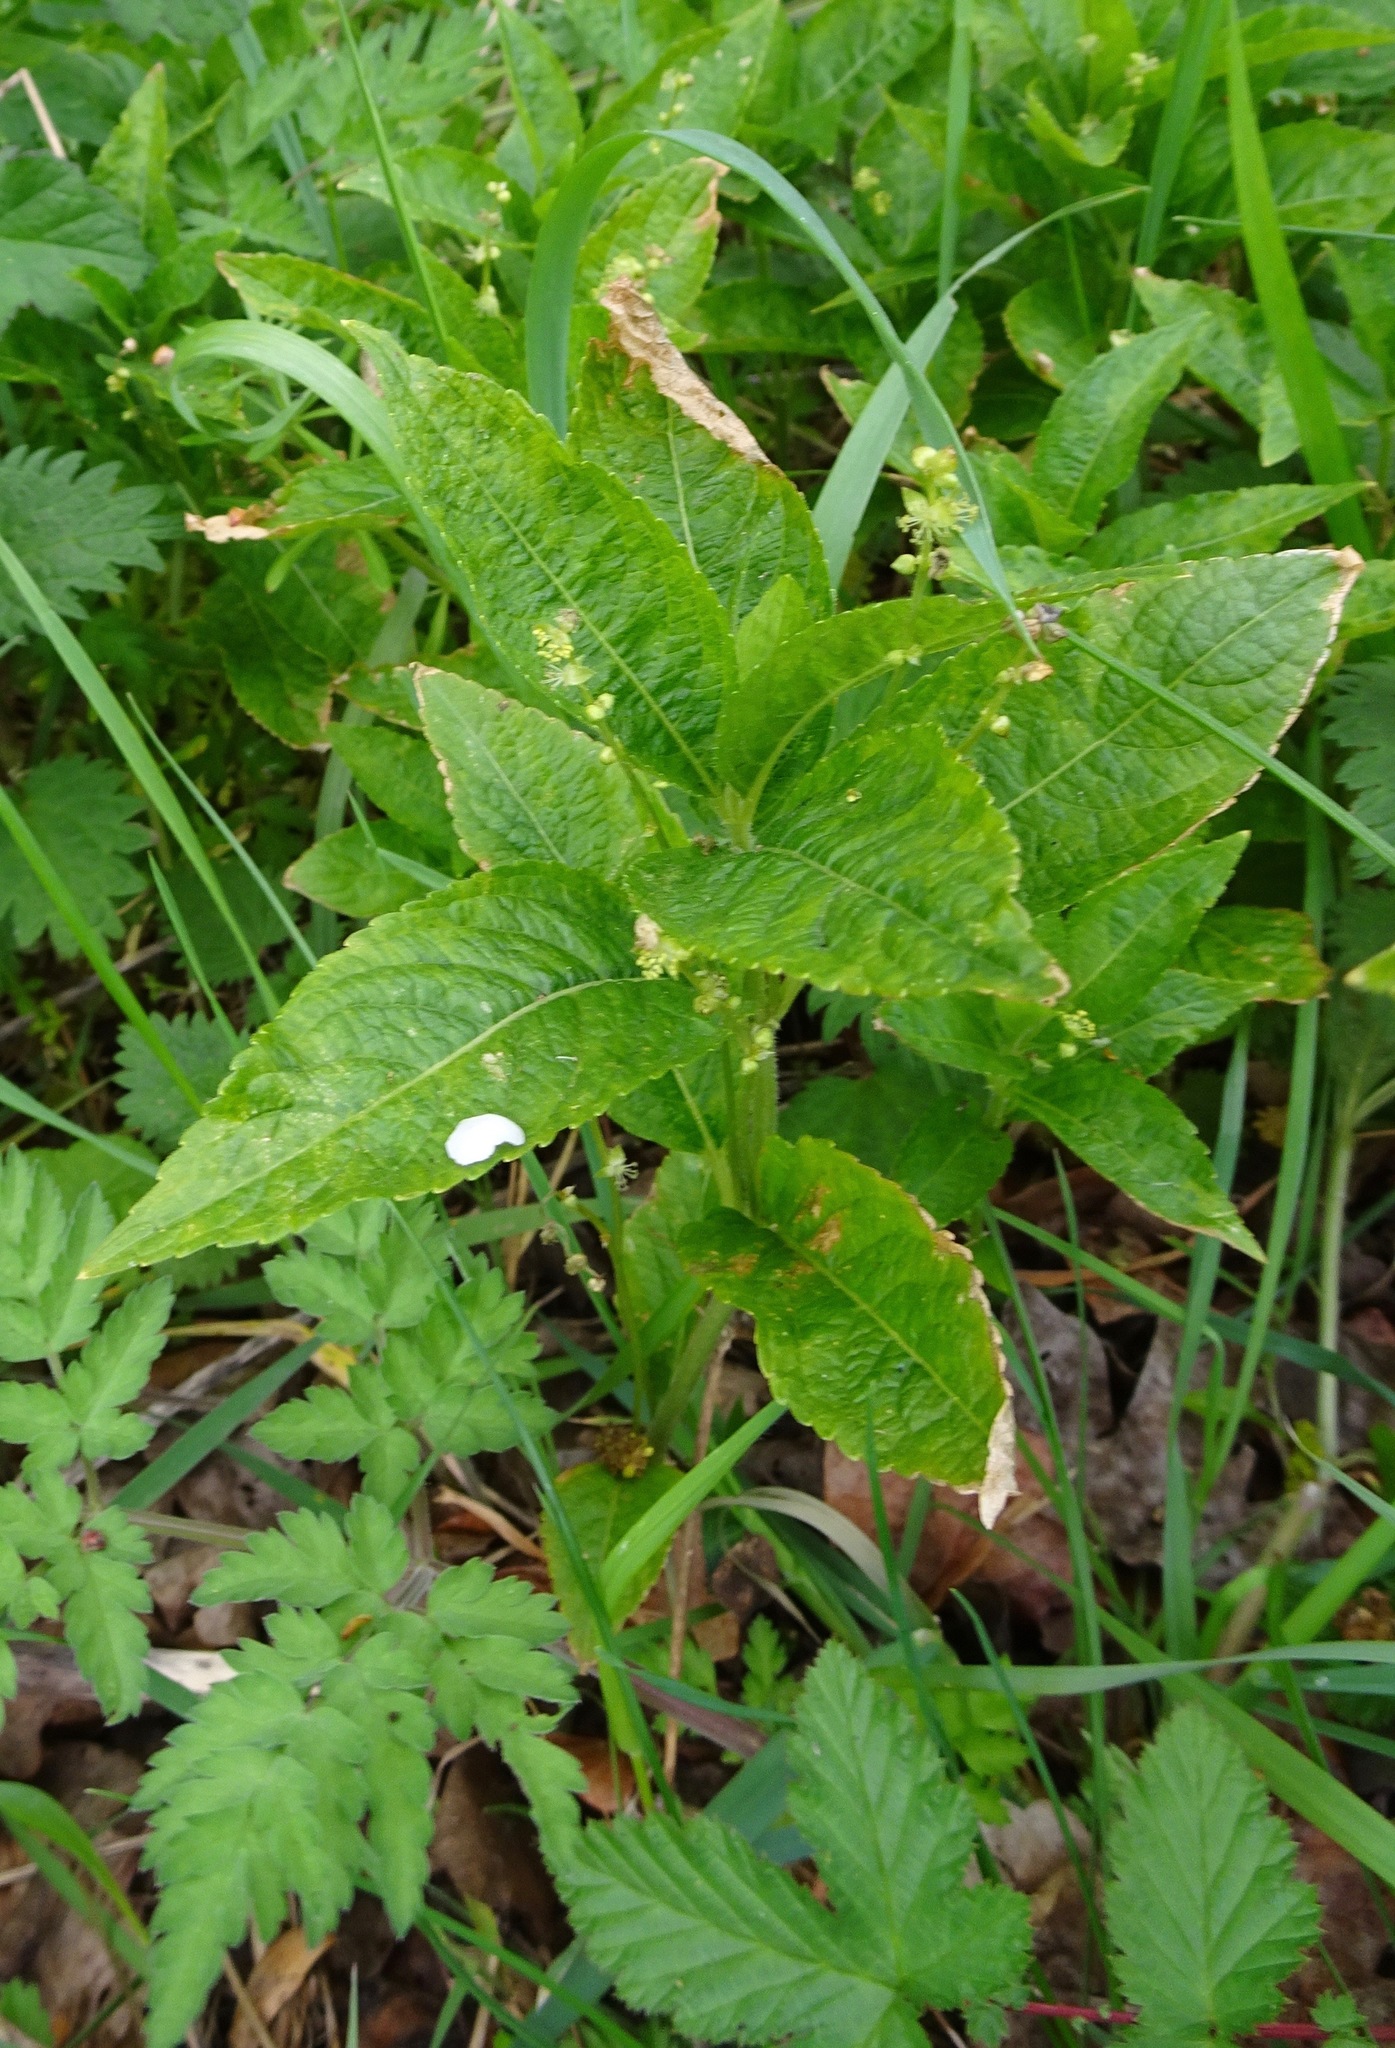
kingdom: Plantae
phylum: Tracheophyta
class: Magnoliopsida
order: Malpighiales
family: Euphorbiaceae
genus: Mercurialis
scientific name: Mercurialis perennis
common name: Dog mercury
